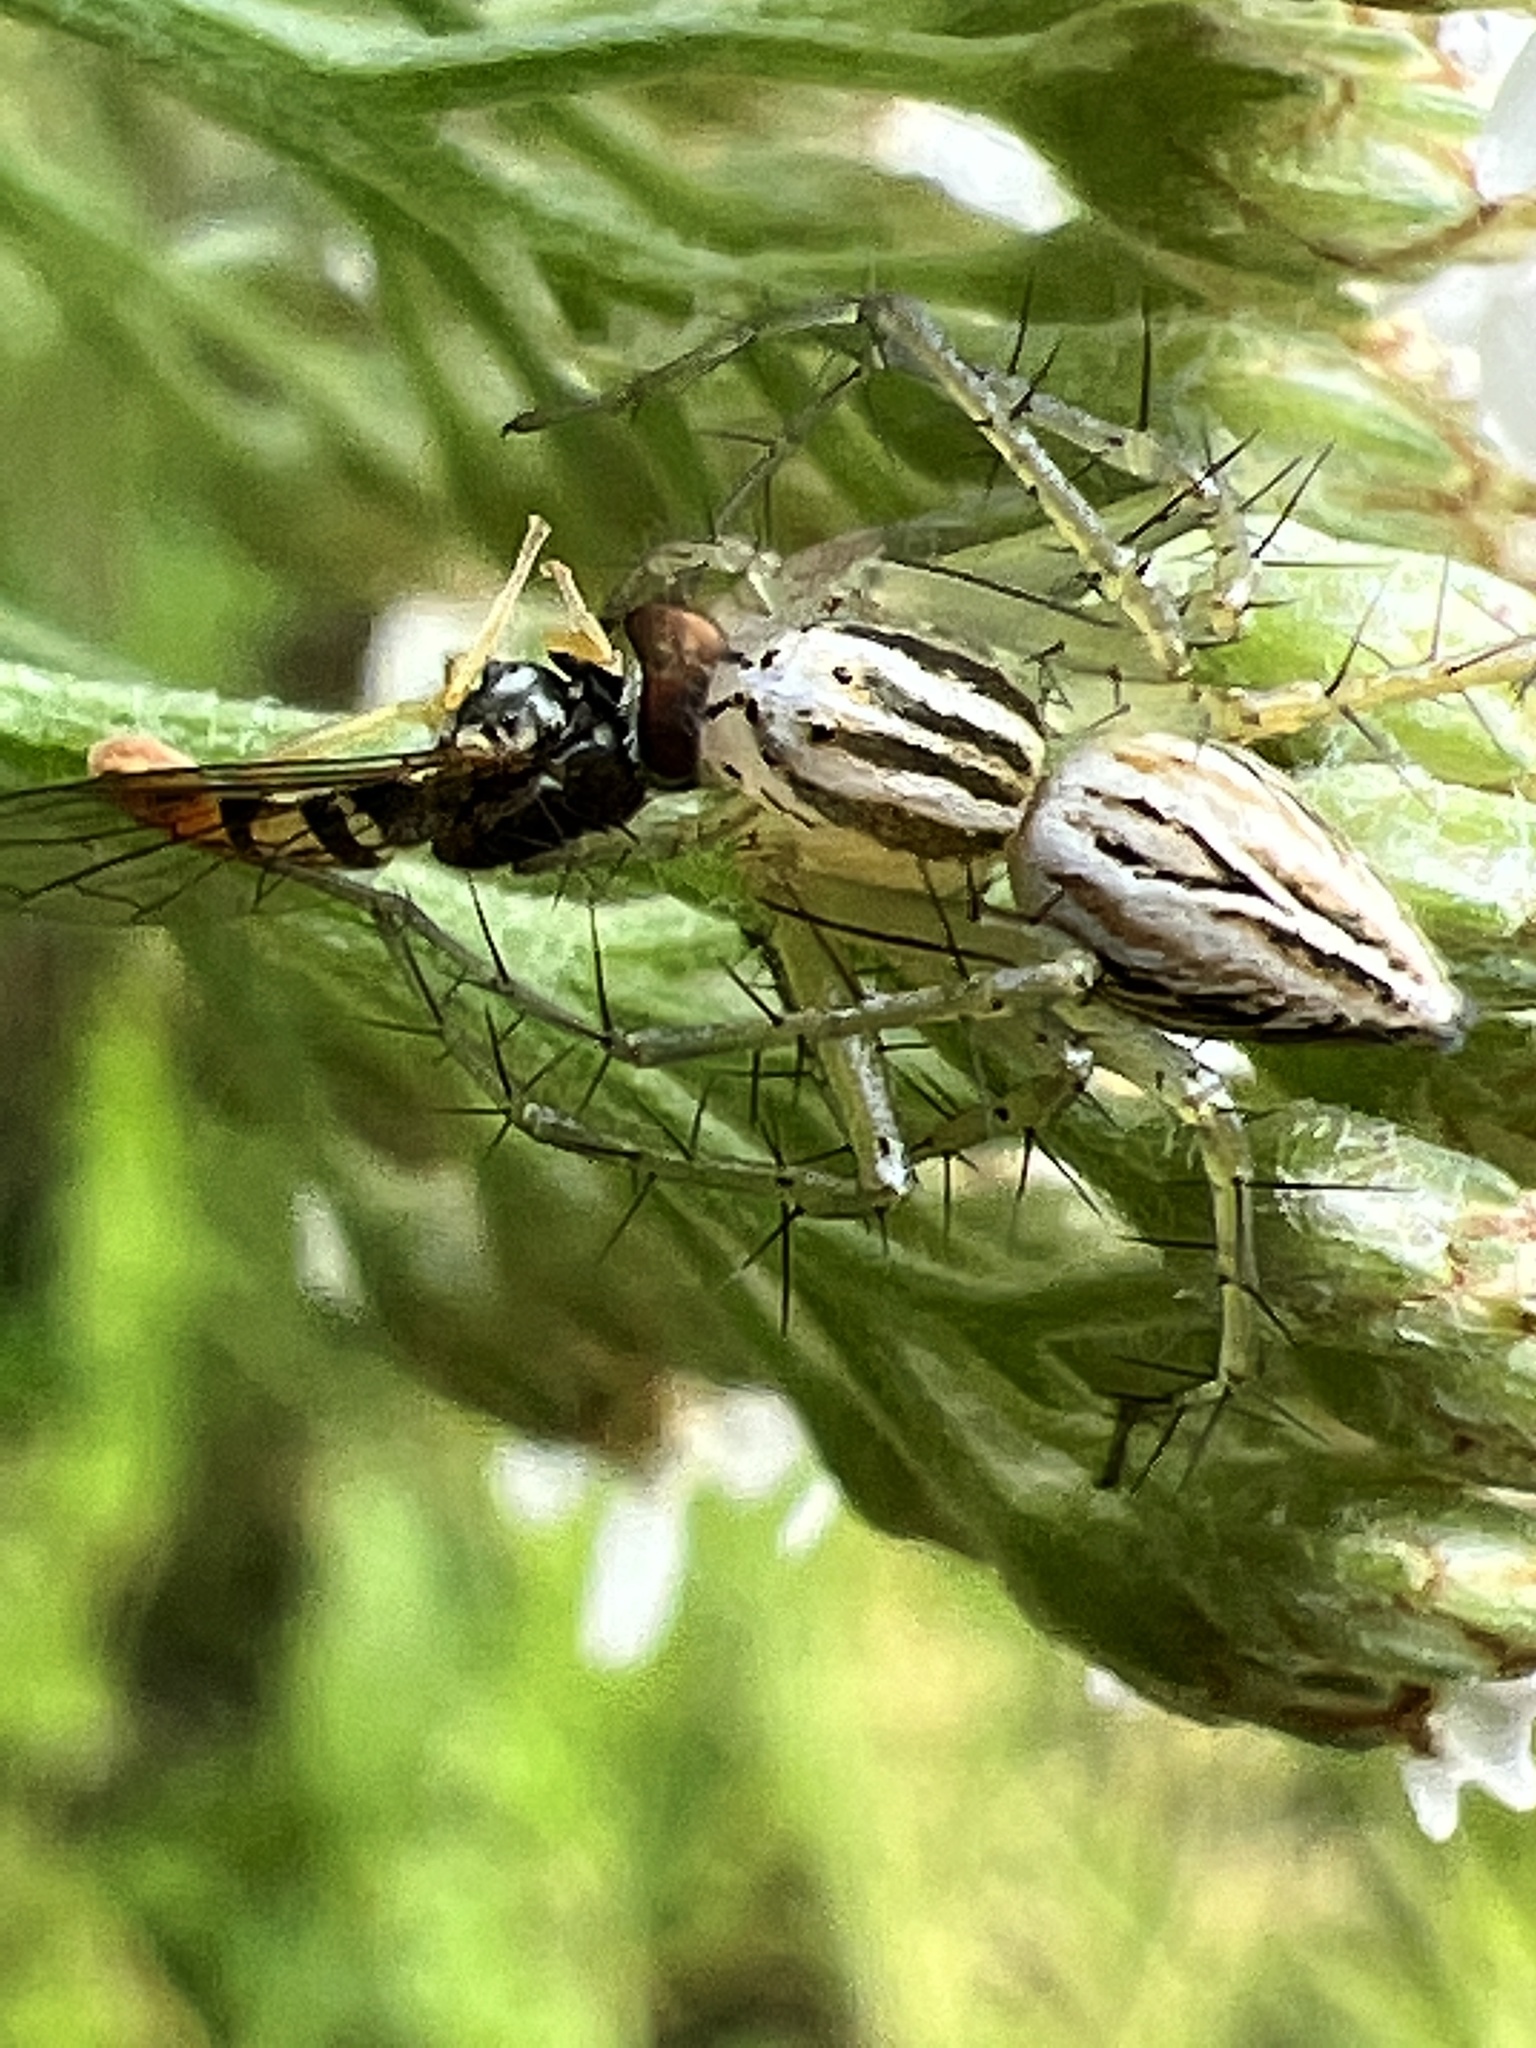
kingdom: Animalia
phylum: Arthropoda
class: Arachnida
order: Araneae
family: Oxyopidae
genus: Oxyopes
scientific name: Oxyopes salticus
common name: Lynx spiders
